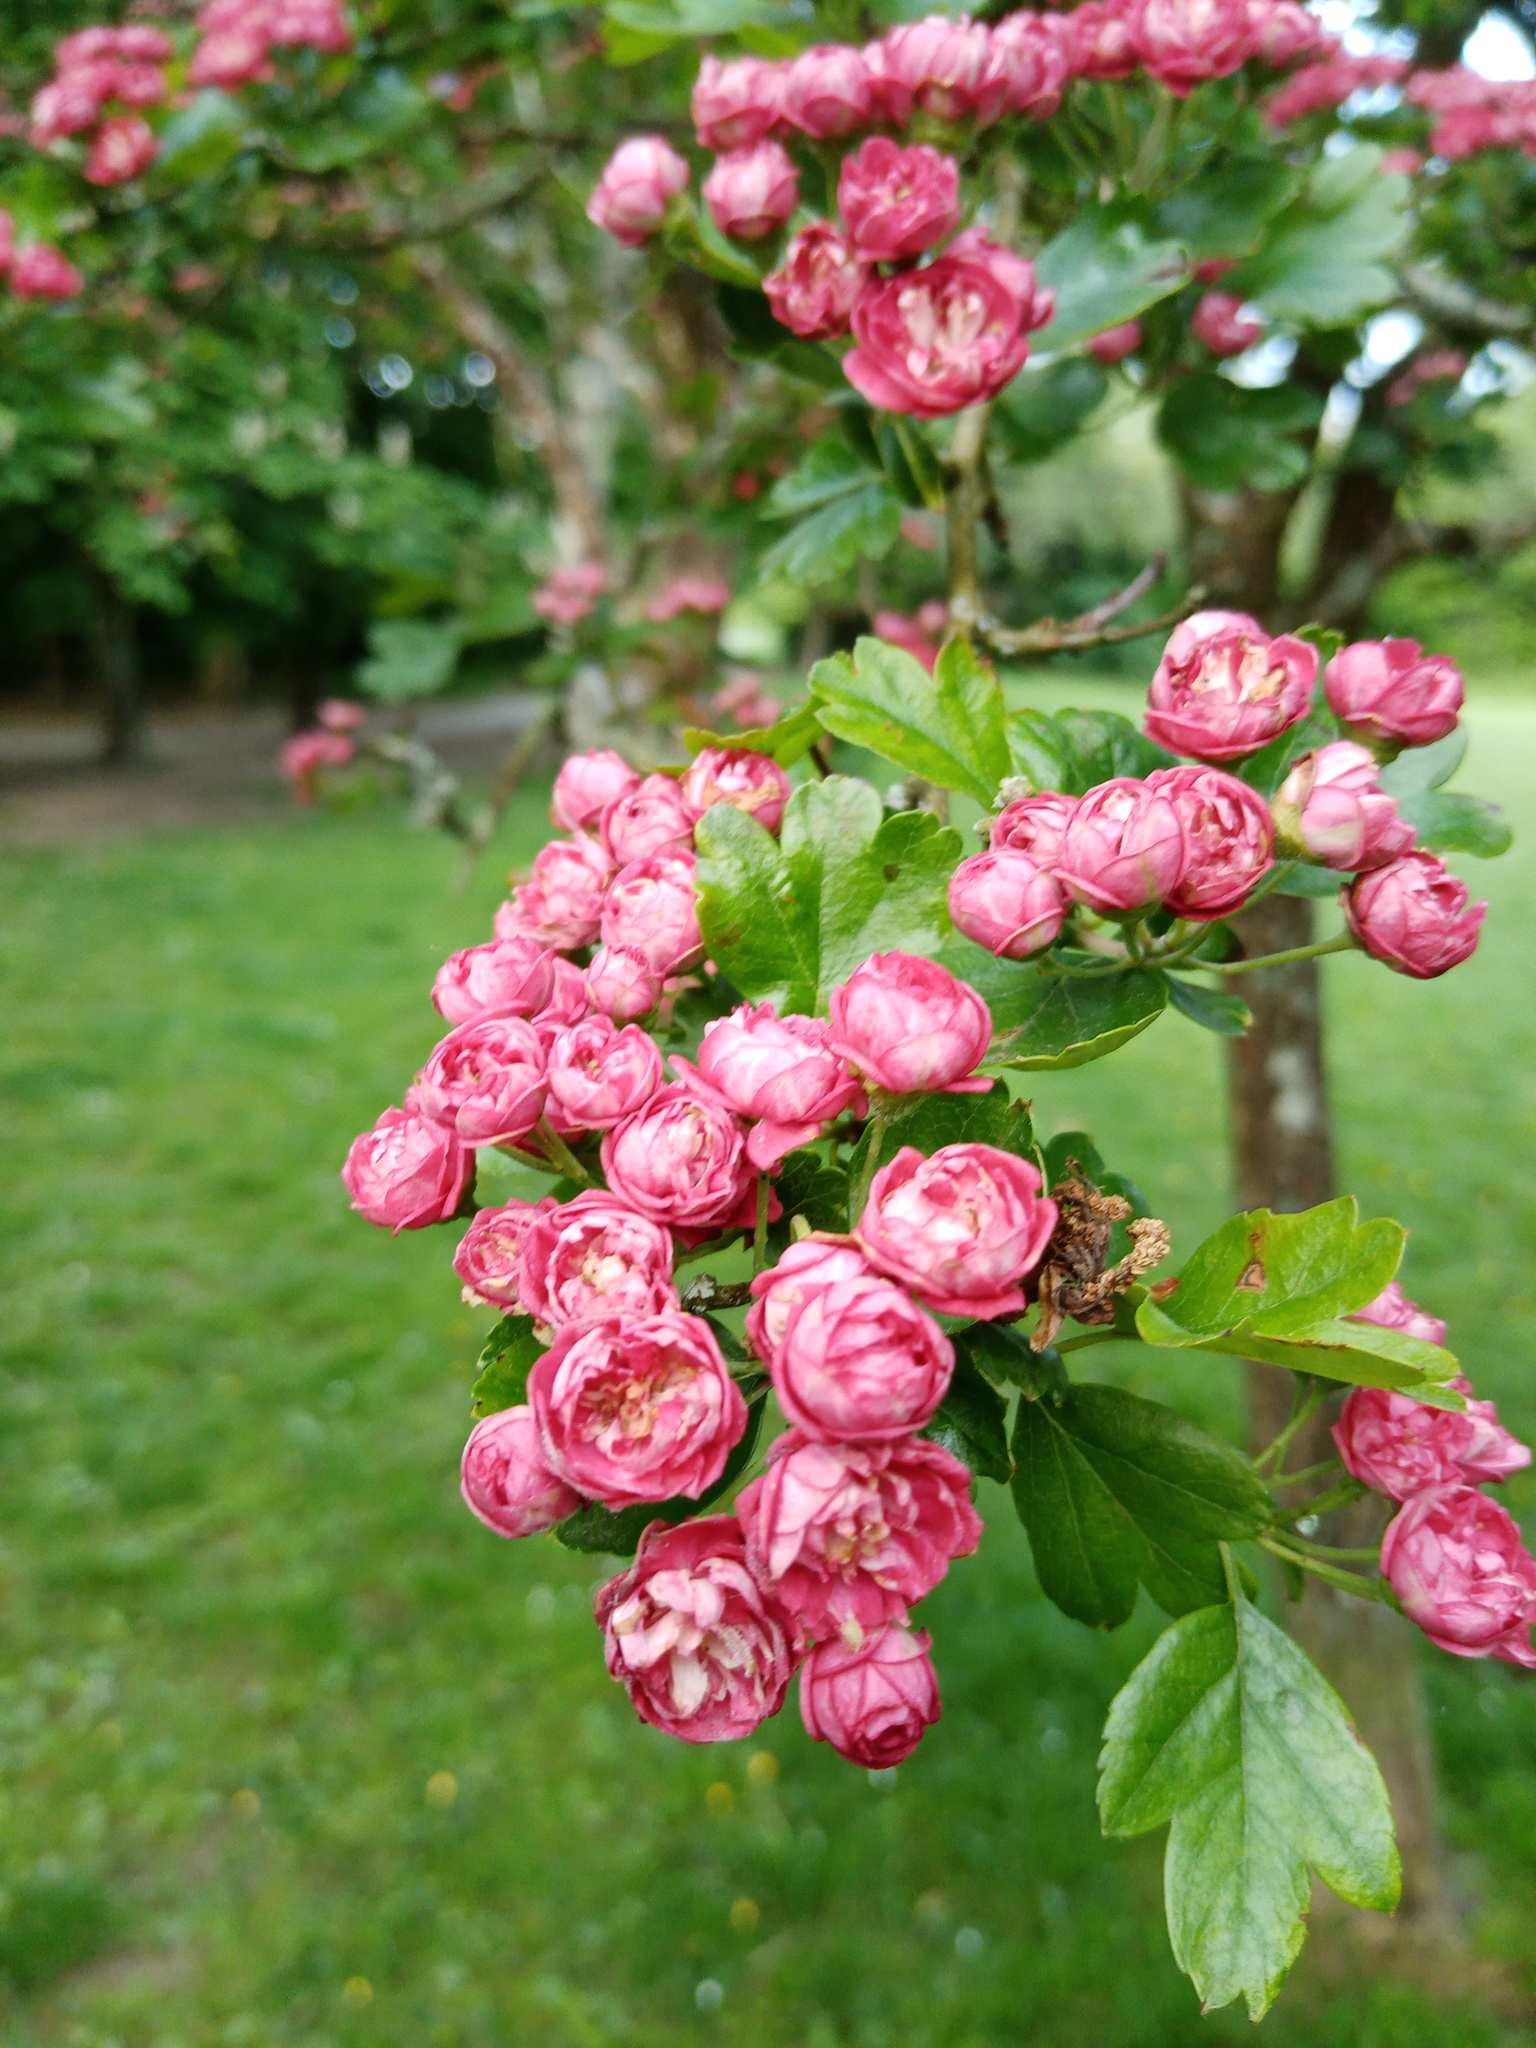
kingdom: Plantae
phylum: Tracheophyta
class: Magnoliopsida
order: Rosales
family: Rosaceae
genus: Crataegus
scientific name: Crataegus laevigata
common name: Midland hawthorn
